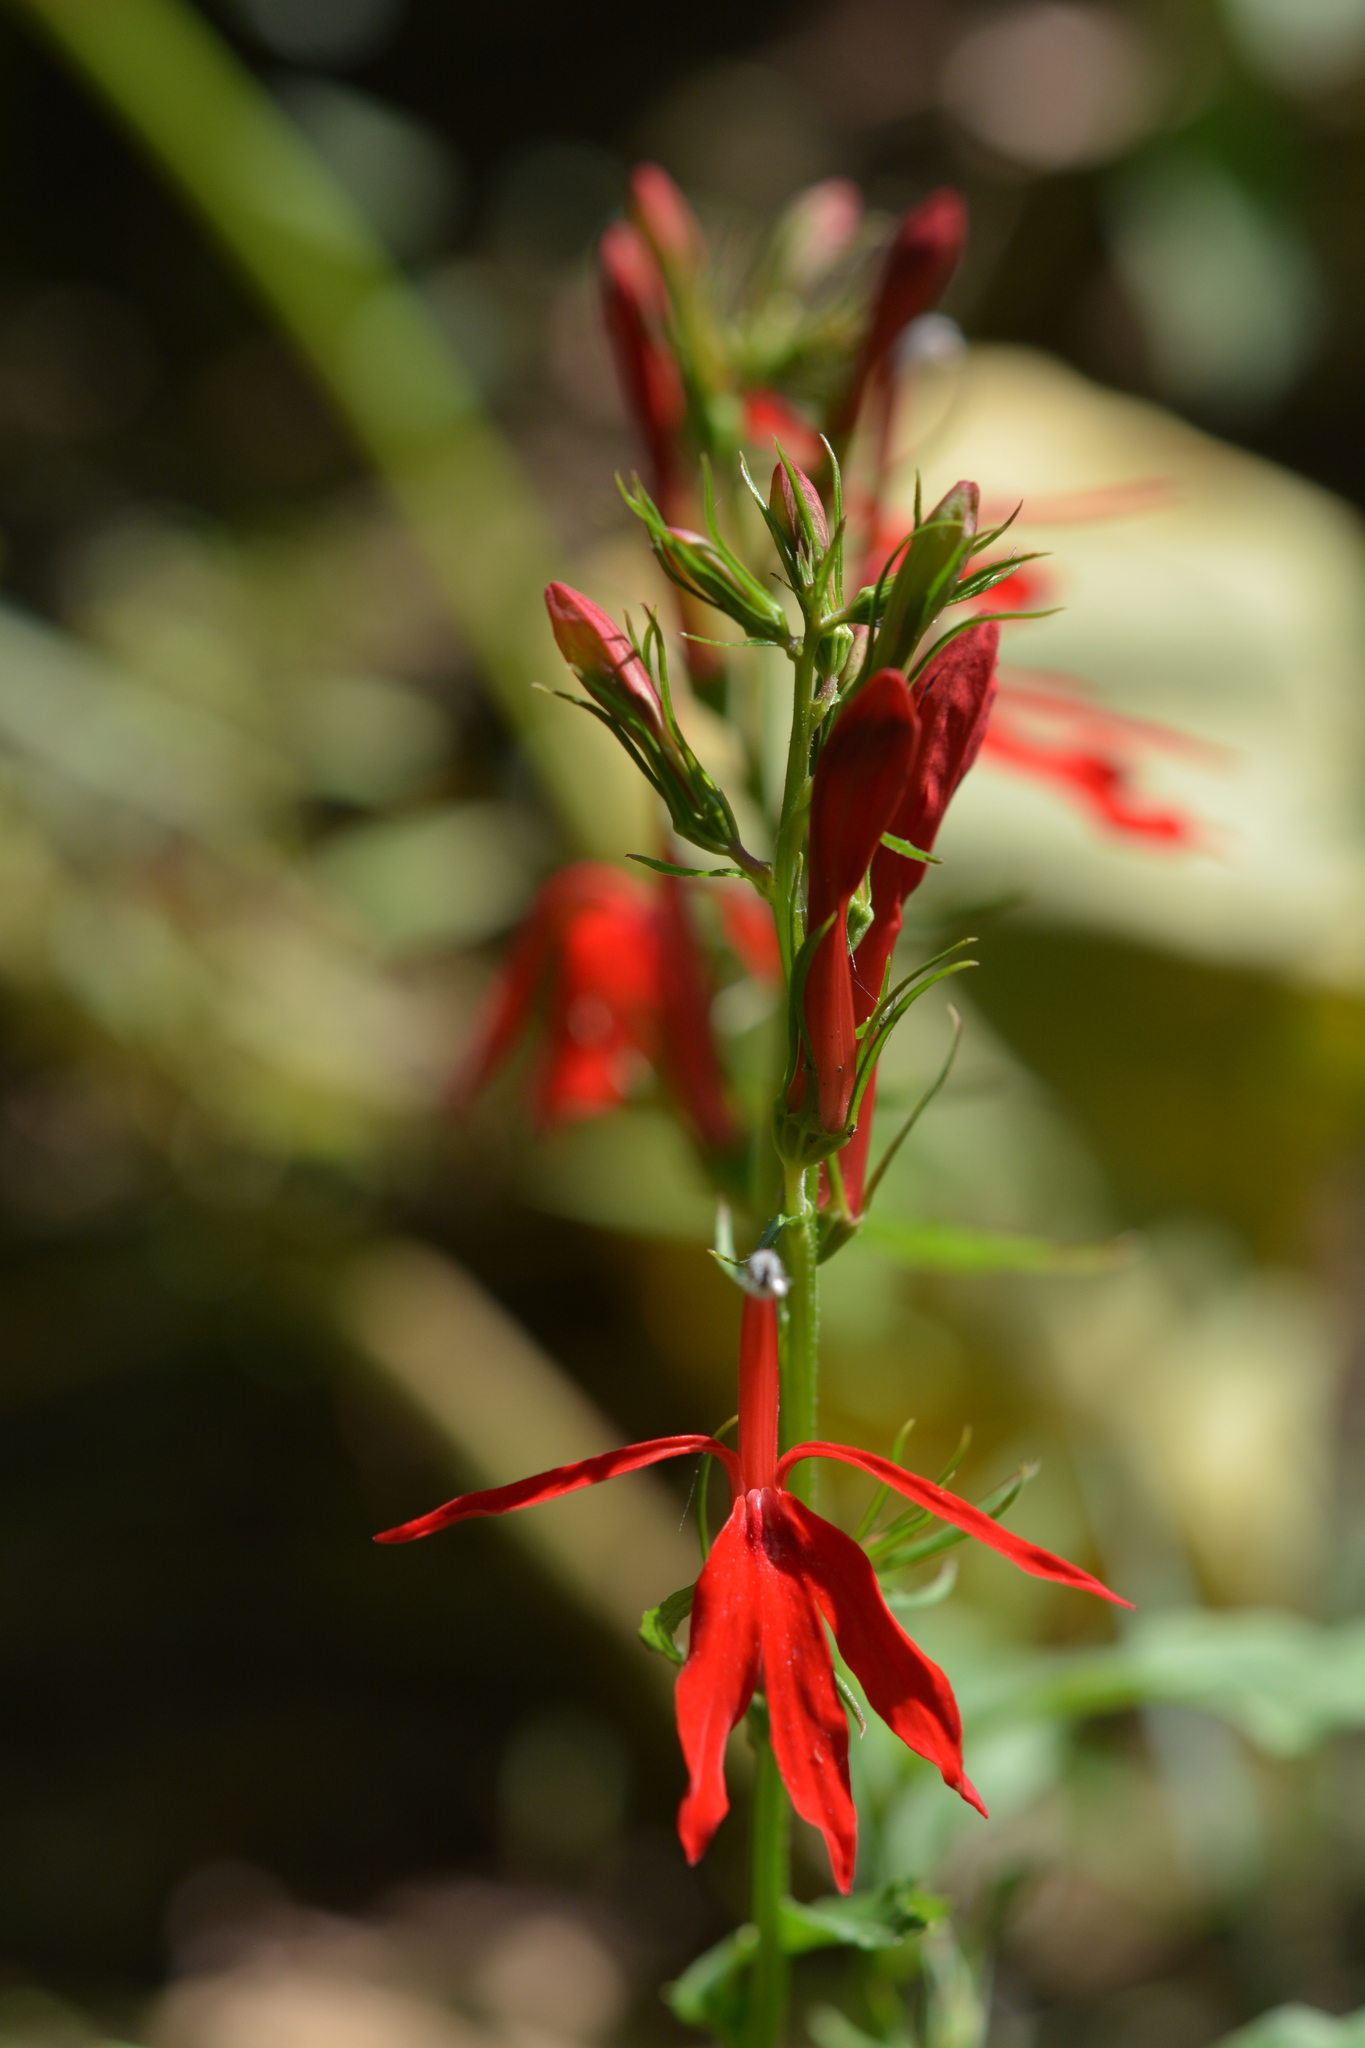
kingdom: Plantae
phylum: Tracheophyta
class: Magnoliopsida
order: Asterales
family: Campanulaceae
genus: Lobelia
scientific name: Lobelia cardinalis
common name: Cardinal flower
